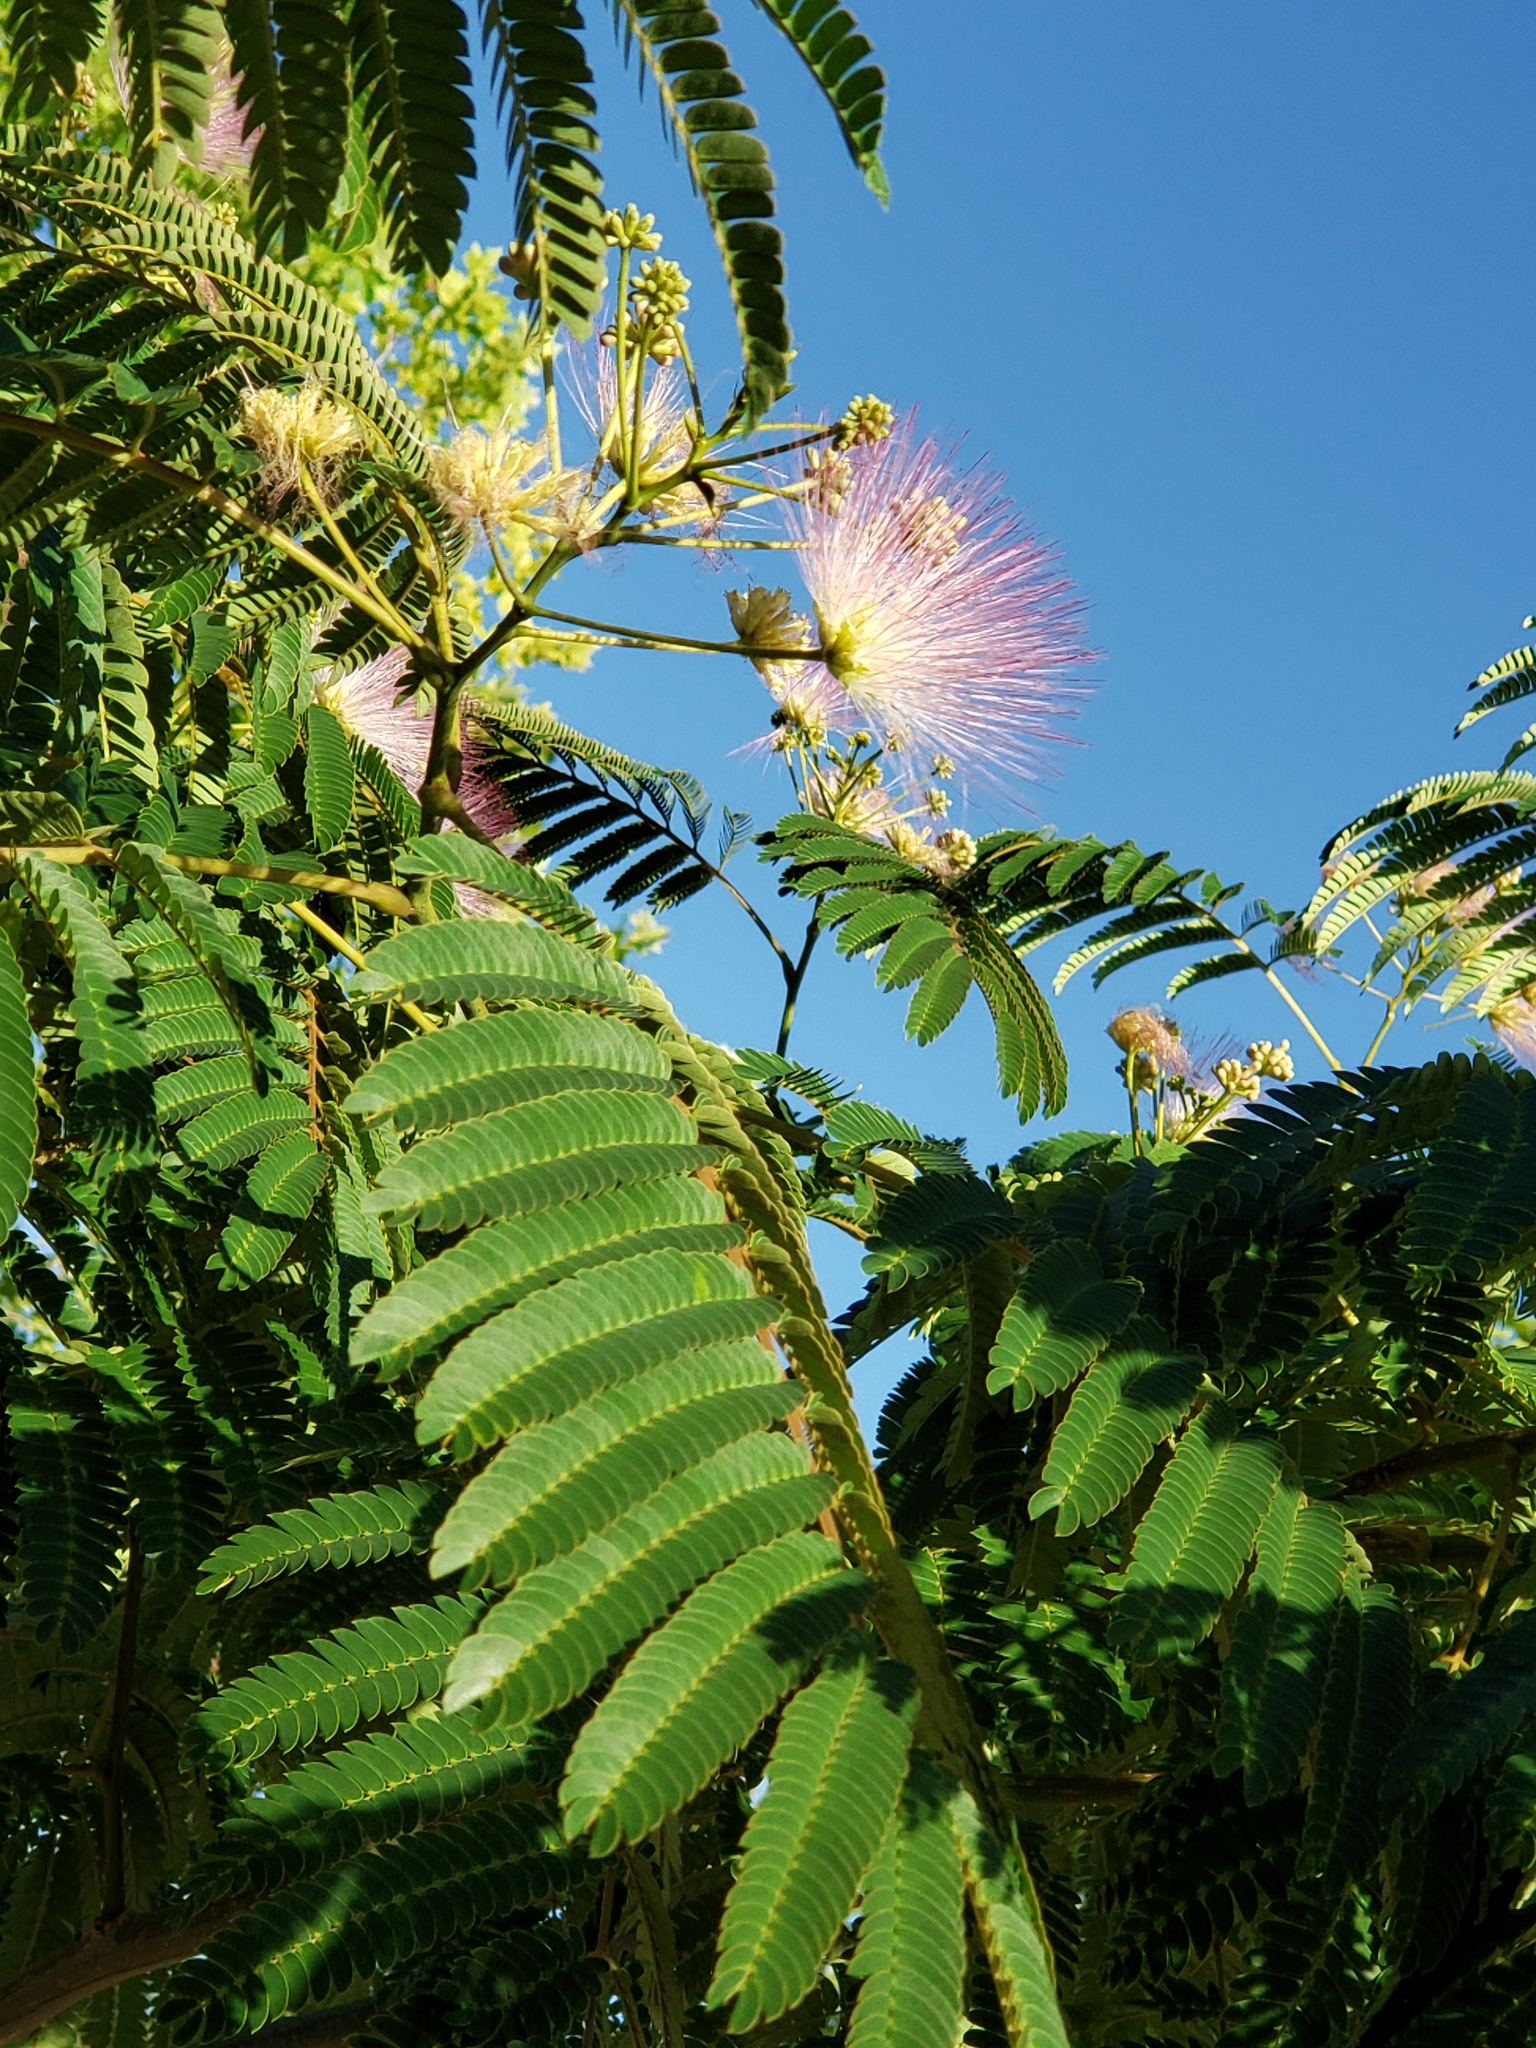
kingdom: Plantae
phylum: Tracheophyta
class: Magnoliopsida
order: Fabales
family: Fabaceae
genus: Albizia
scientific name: Albizia julibrissin
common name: Silktree
